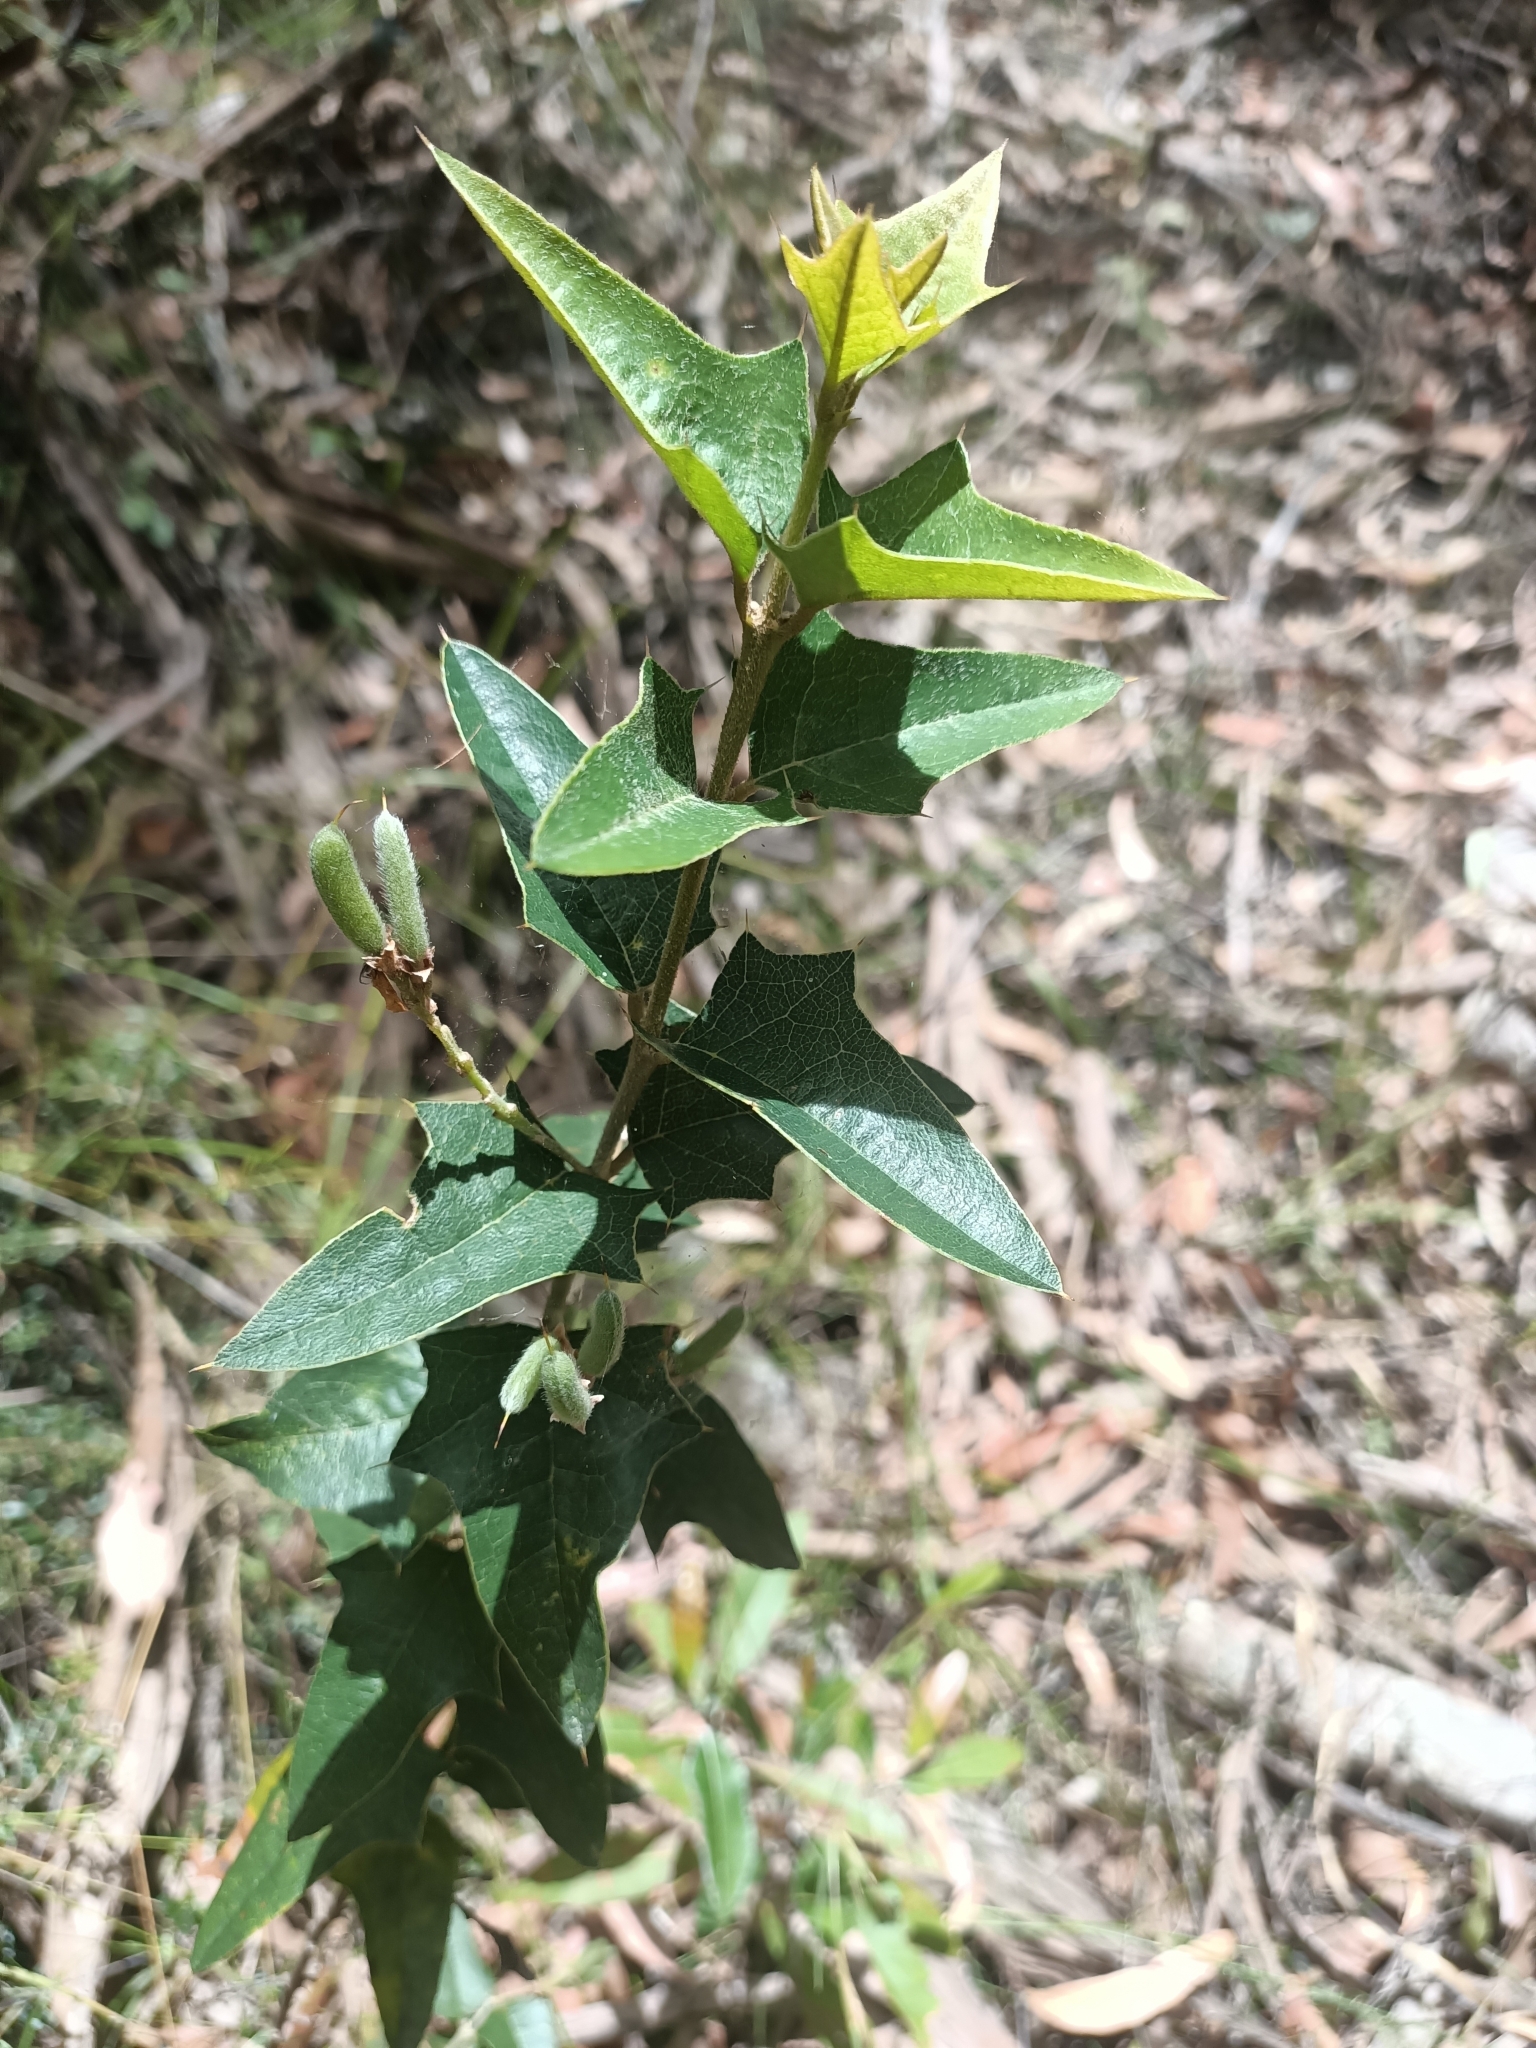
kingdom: Plantae
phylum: Tracheophyta
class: Magnoliopsida
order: Fabales
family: Fabaceae
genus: Podolobium
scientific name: Podolobium ilicifolium
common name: Native holly
